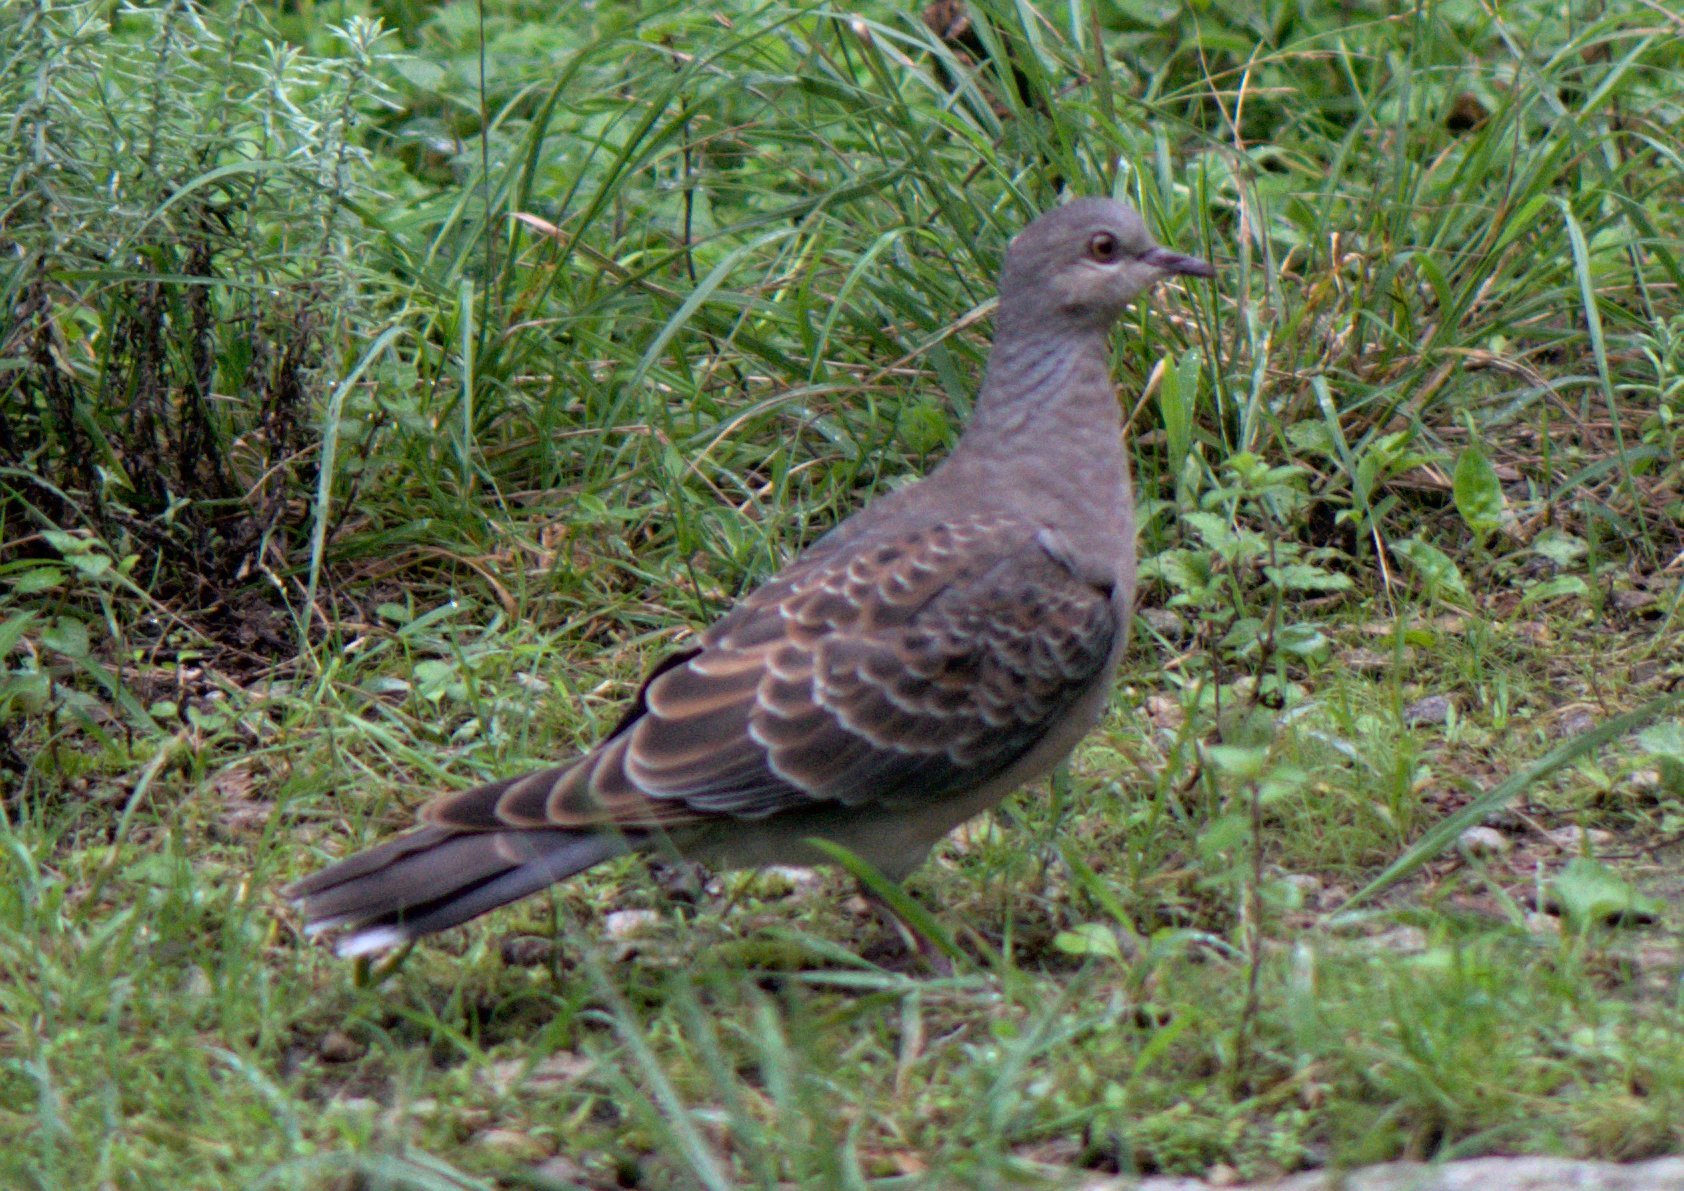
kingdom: Animalia
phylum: Chordata
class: Aves
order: Columbiformes
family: Columbidae
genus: Streptopelia
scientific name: Streptopelia orientalis
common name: Oriental turtle dove
